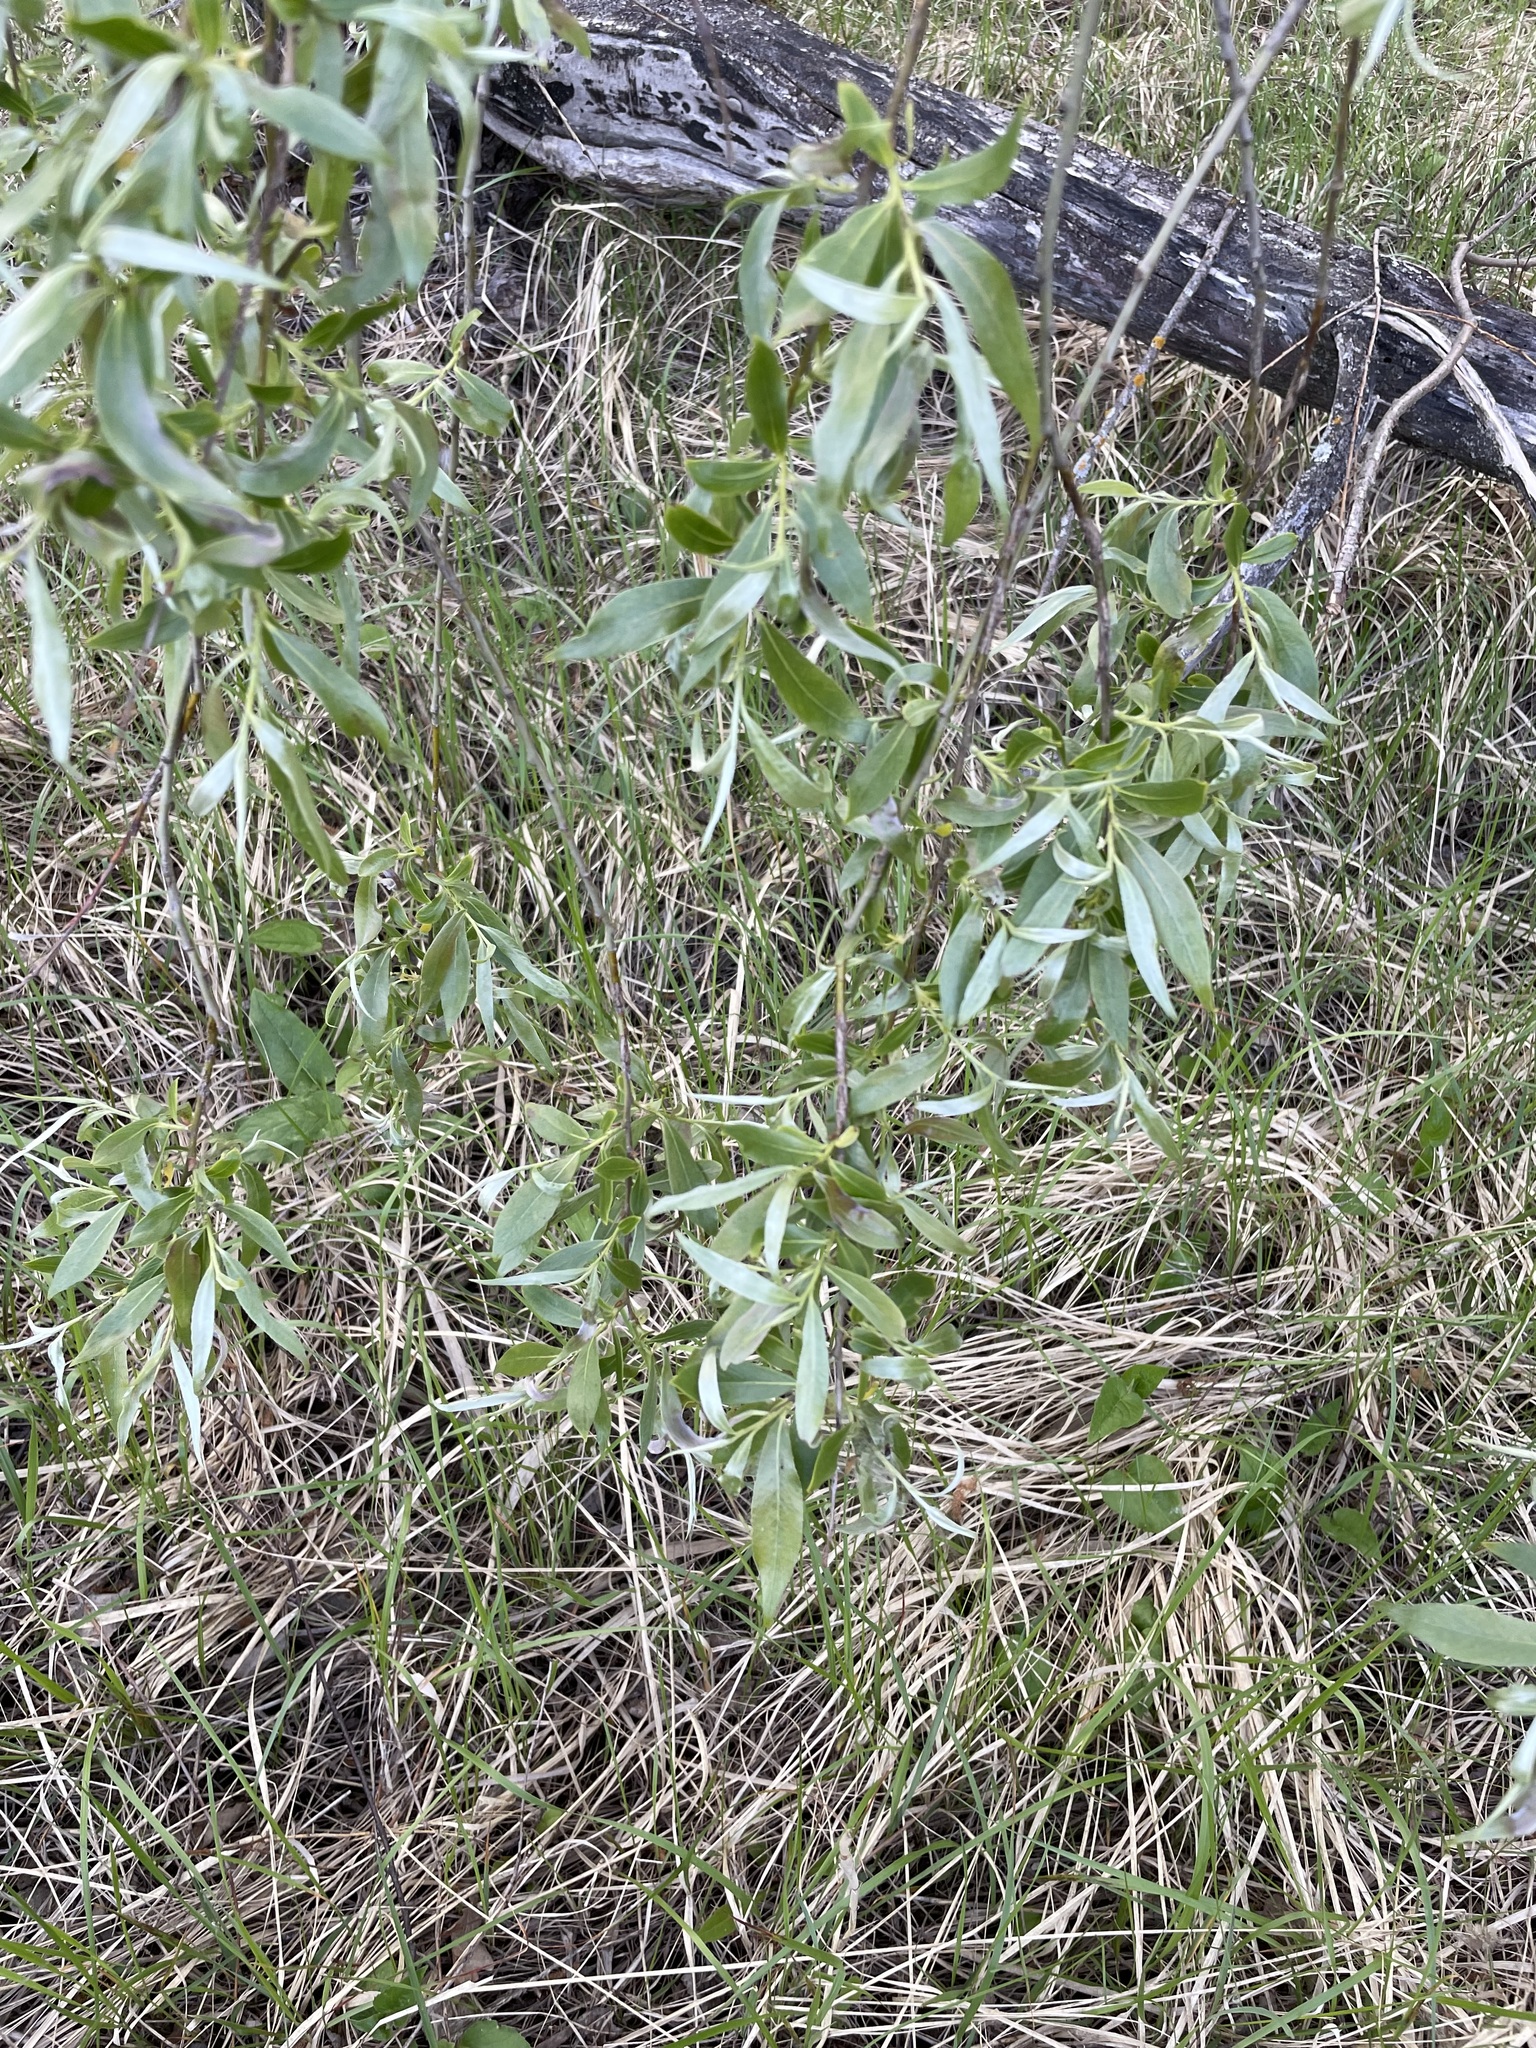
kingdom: Plantae
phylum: Tracheophyta
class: Magnoliopsida
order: Malpighiales
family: Salicaceae
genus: Salix
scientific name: Salix alba
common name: White willow
